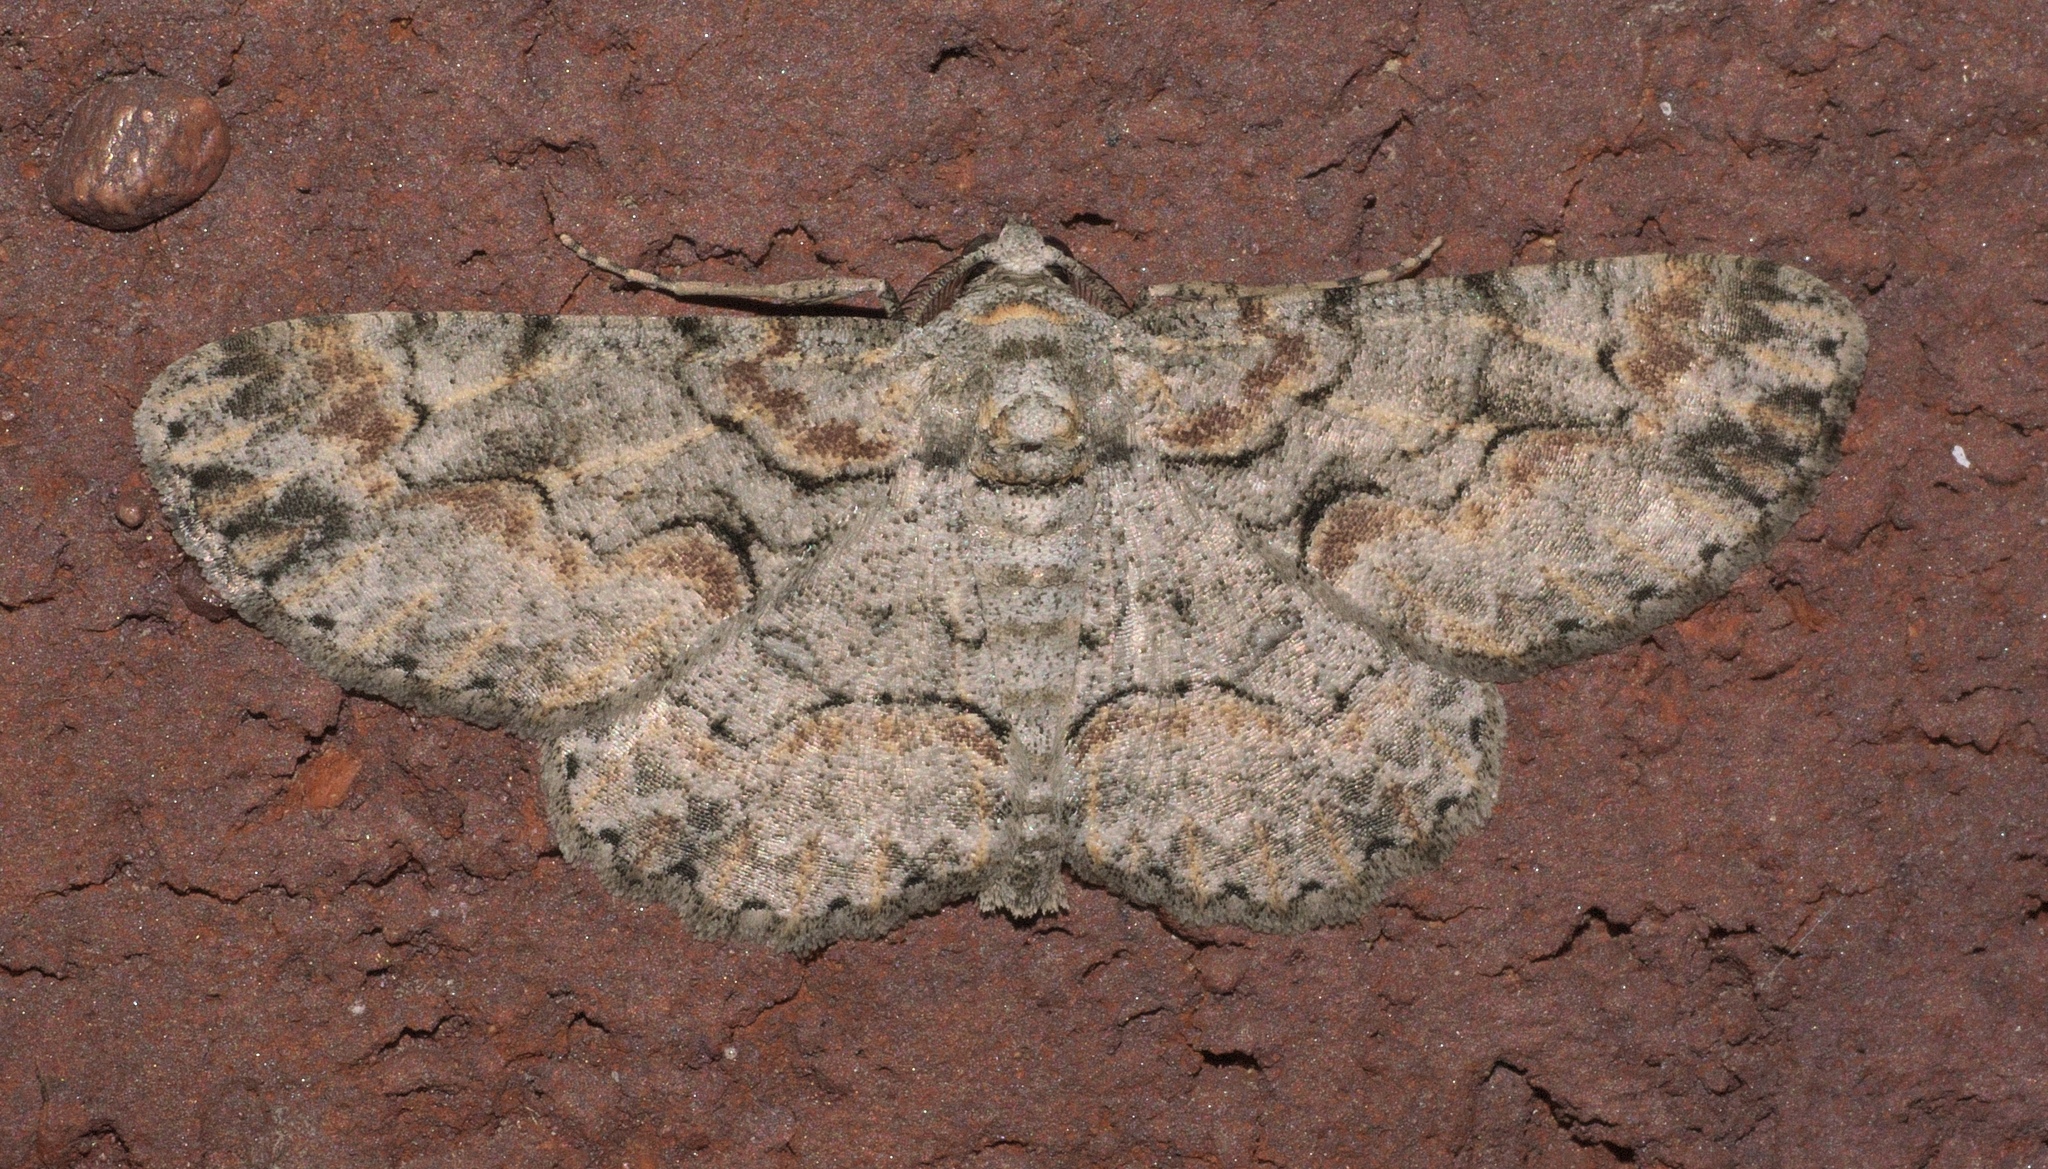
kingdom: Animalia
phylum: Arthropoda
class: Insecta
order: Lepidoptera
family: Geometridae
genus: Iridopsis
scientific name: Iridopsis defectaria
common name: Brown-shaded gray
